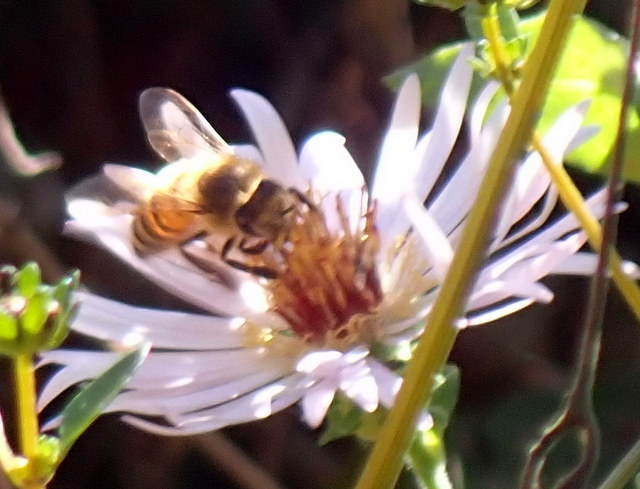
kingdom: Animalia
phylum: Arthropoda
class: Insecta
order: Hymenoptera
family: Apidae
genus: Apis
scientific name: Apis mellifera
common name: Honey bee
